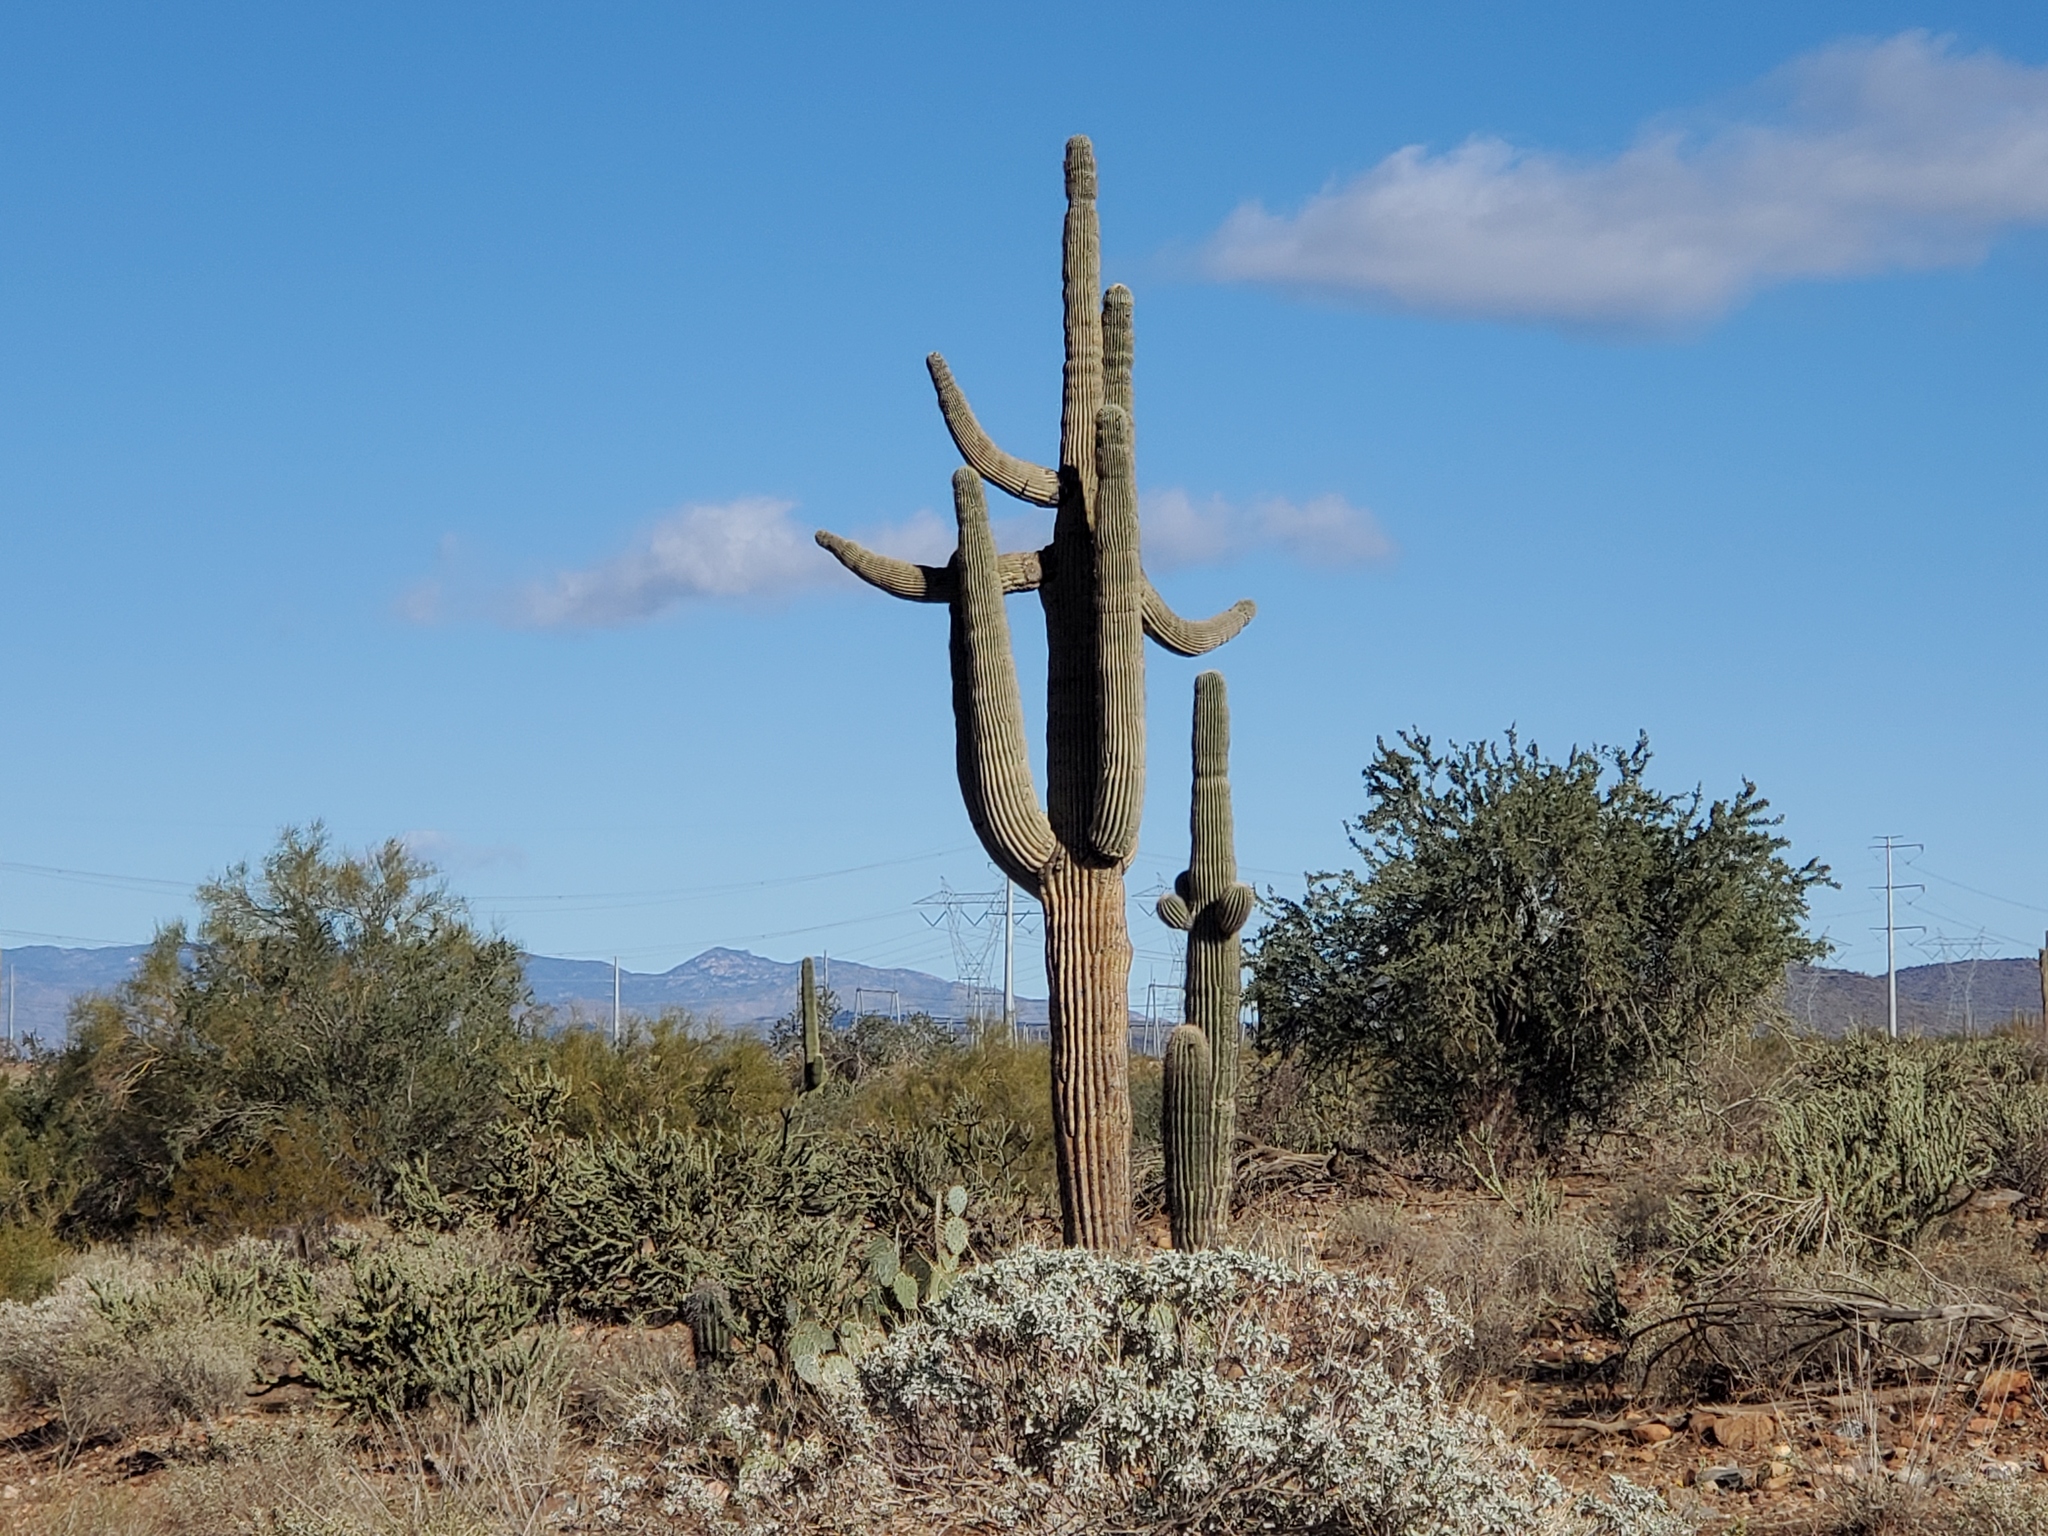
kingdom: Plantae
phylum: Tracheophyta
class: Magnoliopsida
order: Caryophyllales
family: Cactaceae
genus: Carnegiea
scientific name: Carnegiea gigantea
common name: Saguaro
